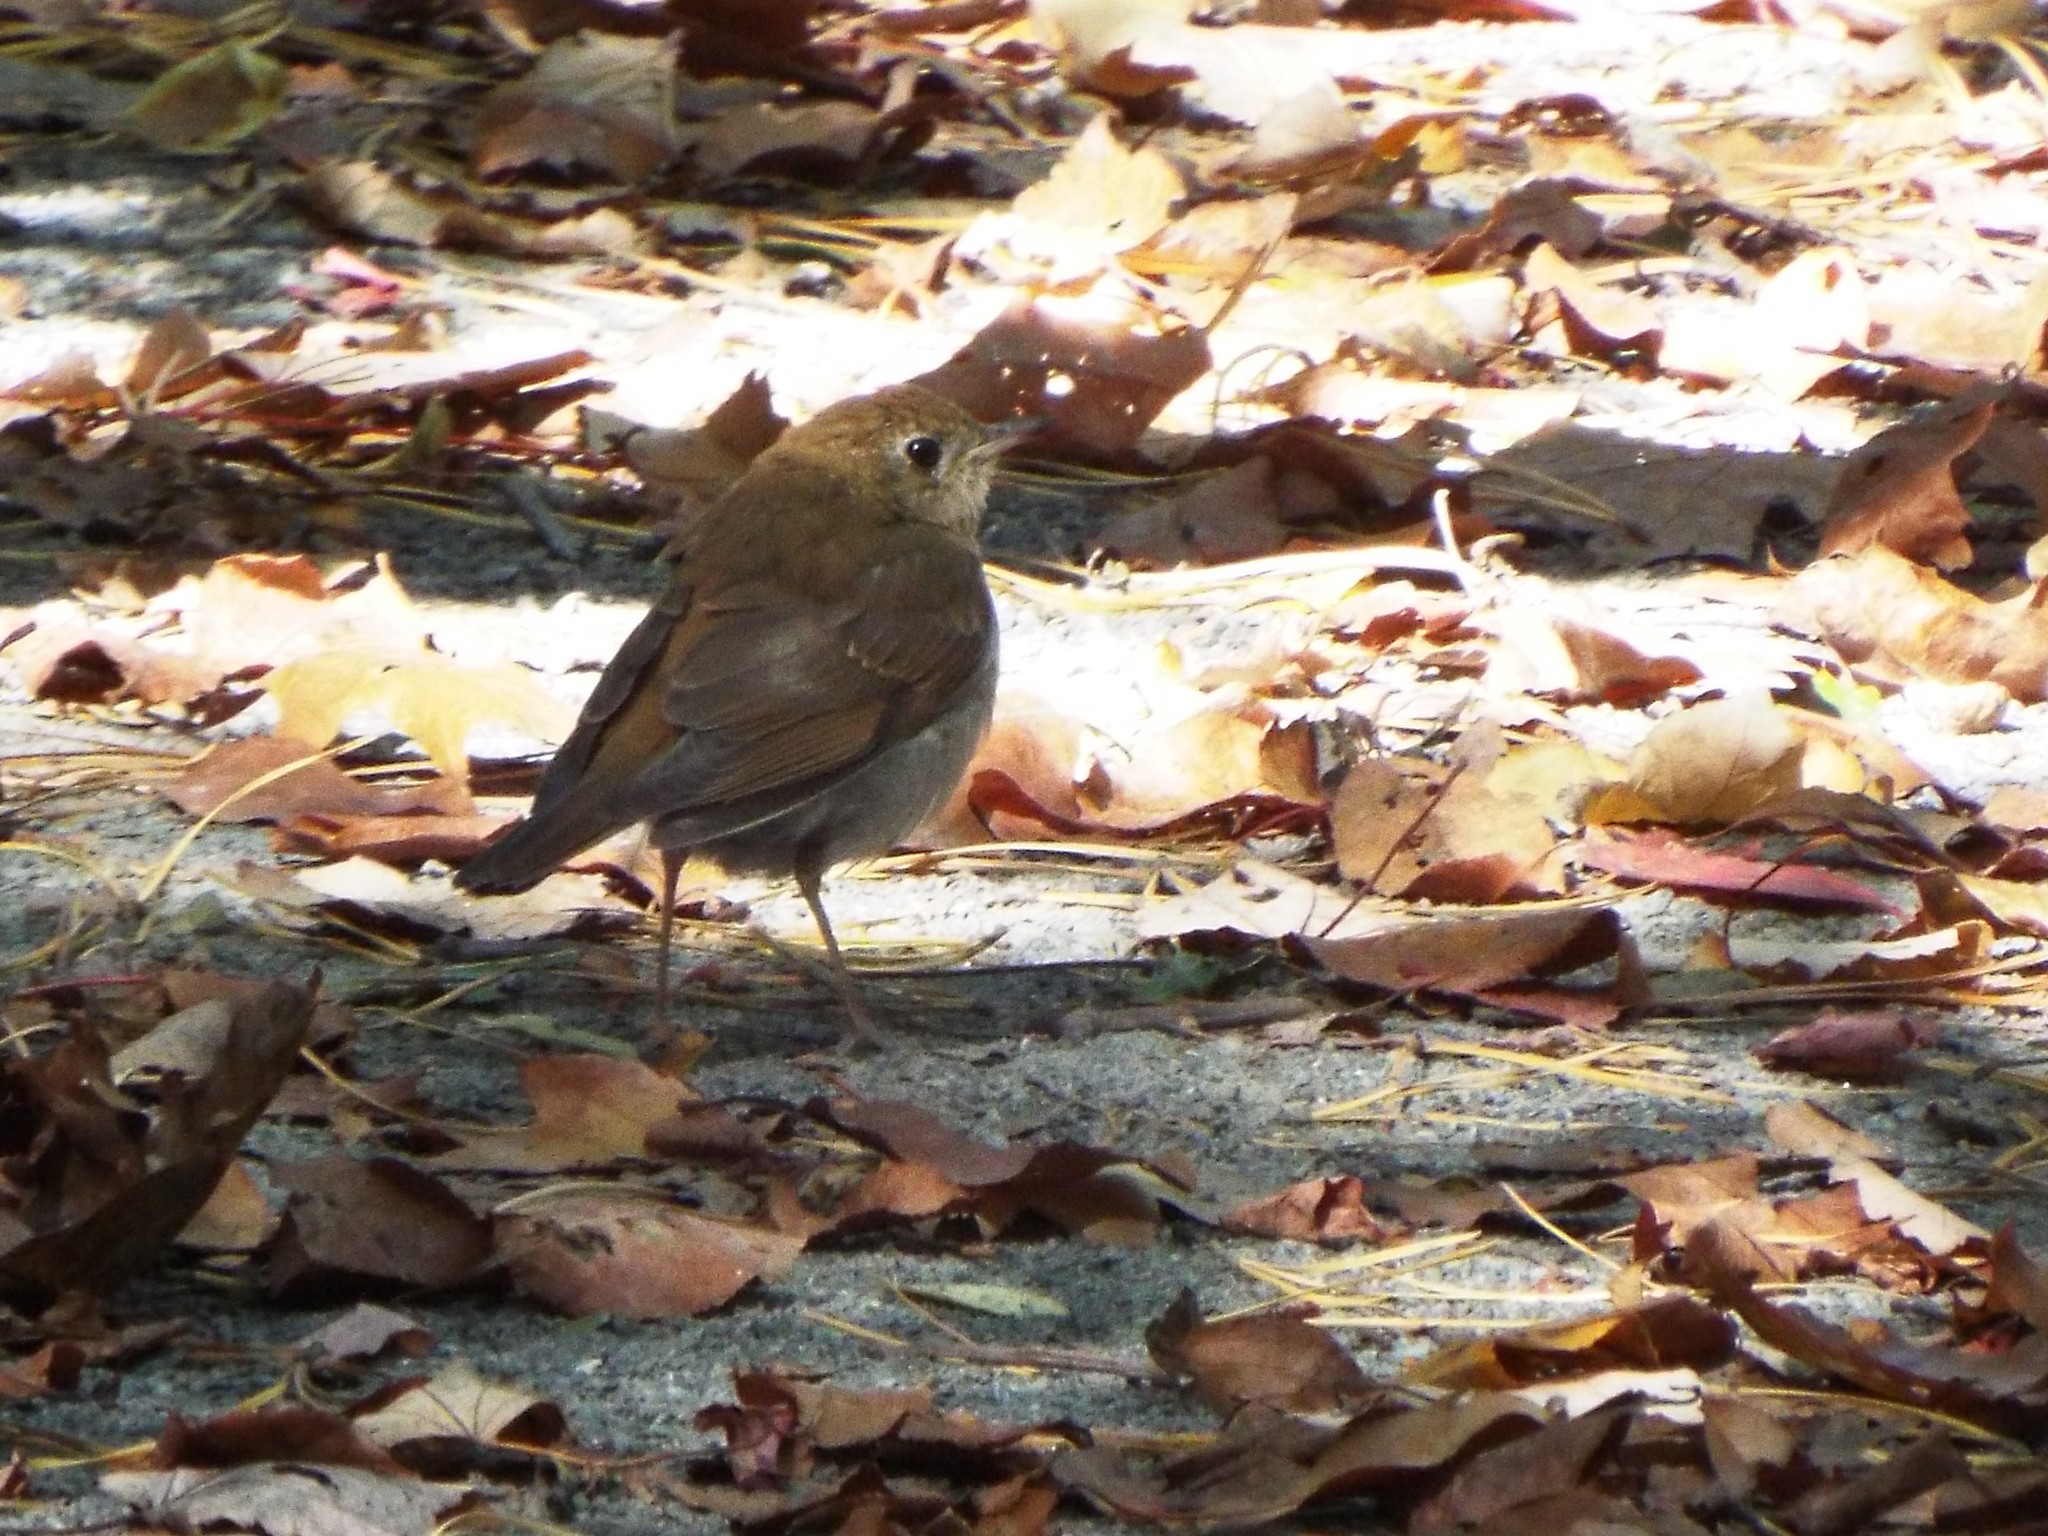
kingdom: Animalia
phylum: Chordata
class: Aves
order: Passeriformes
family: Turdidae
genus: Catharus
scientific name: Catharus fuscescens
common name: Veery
